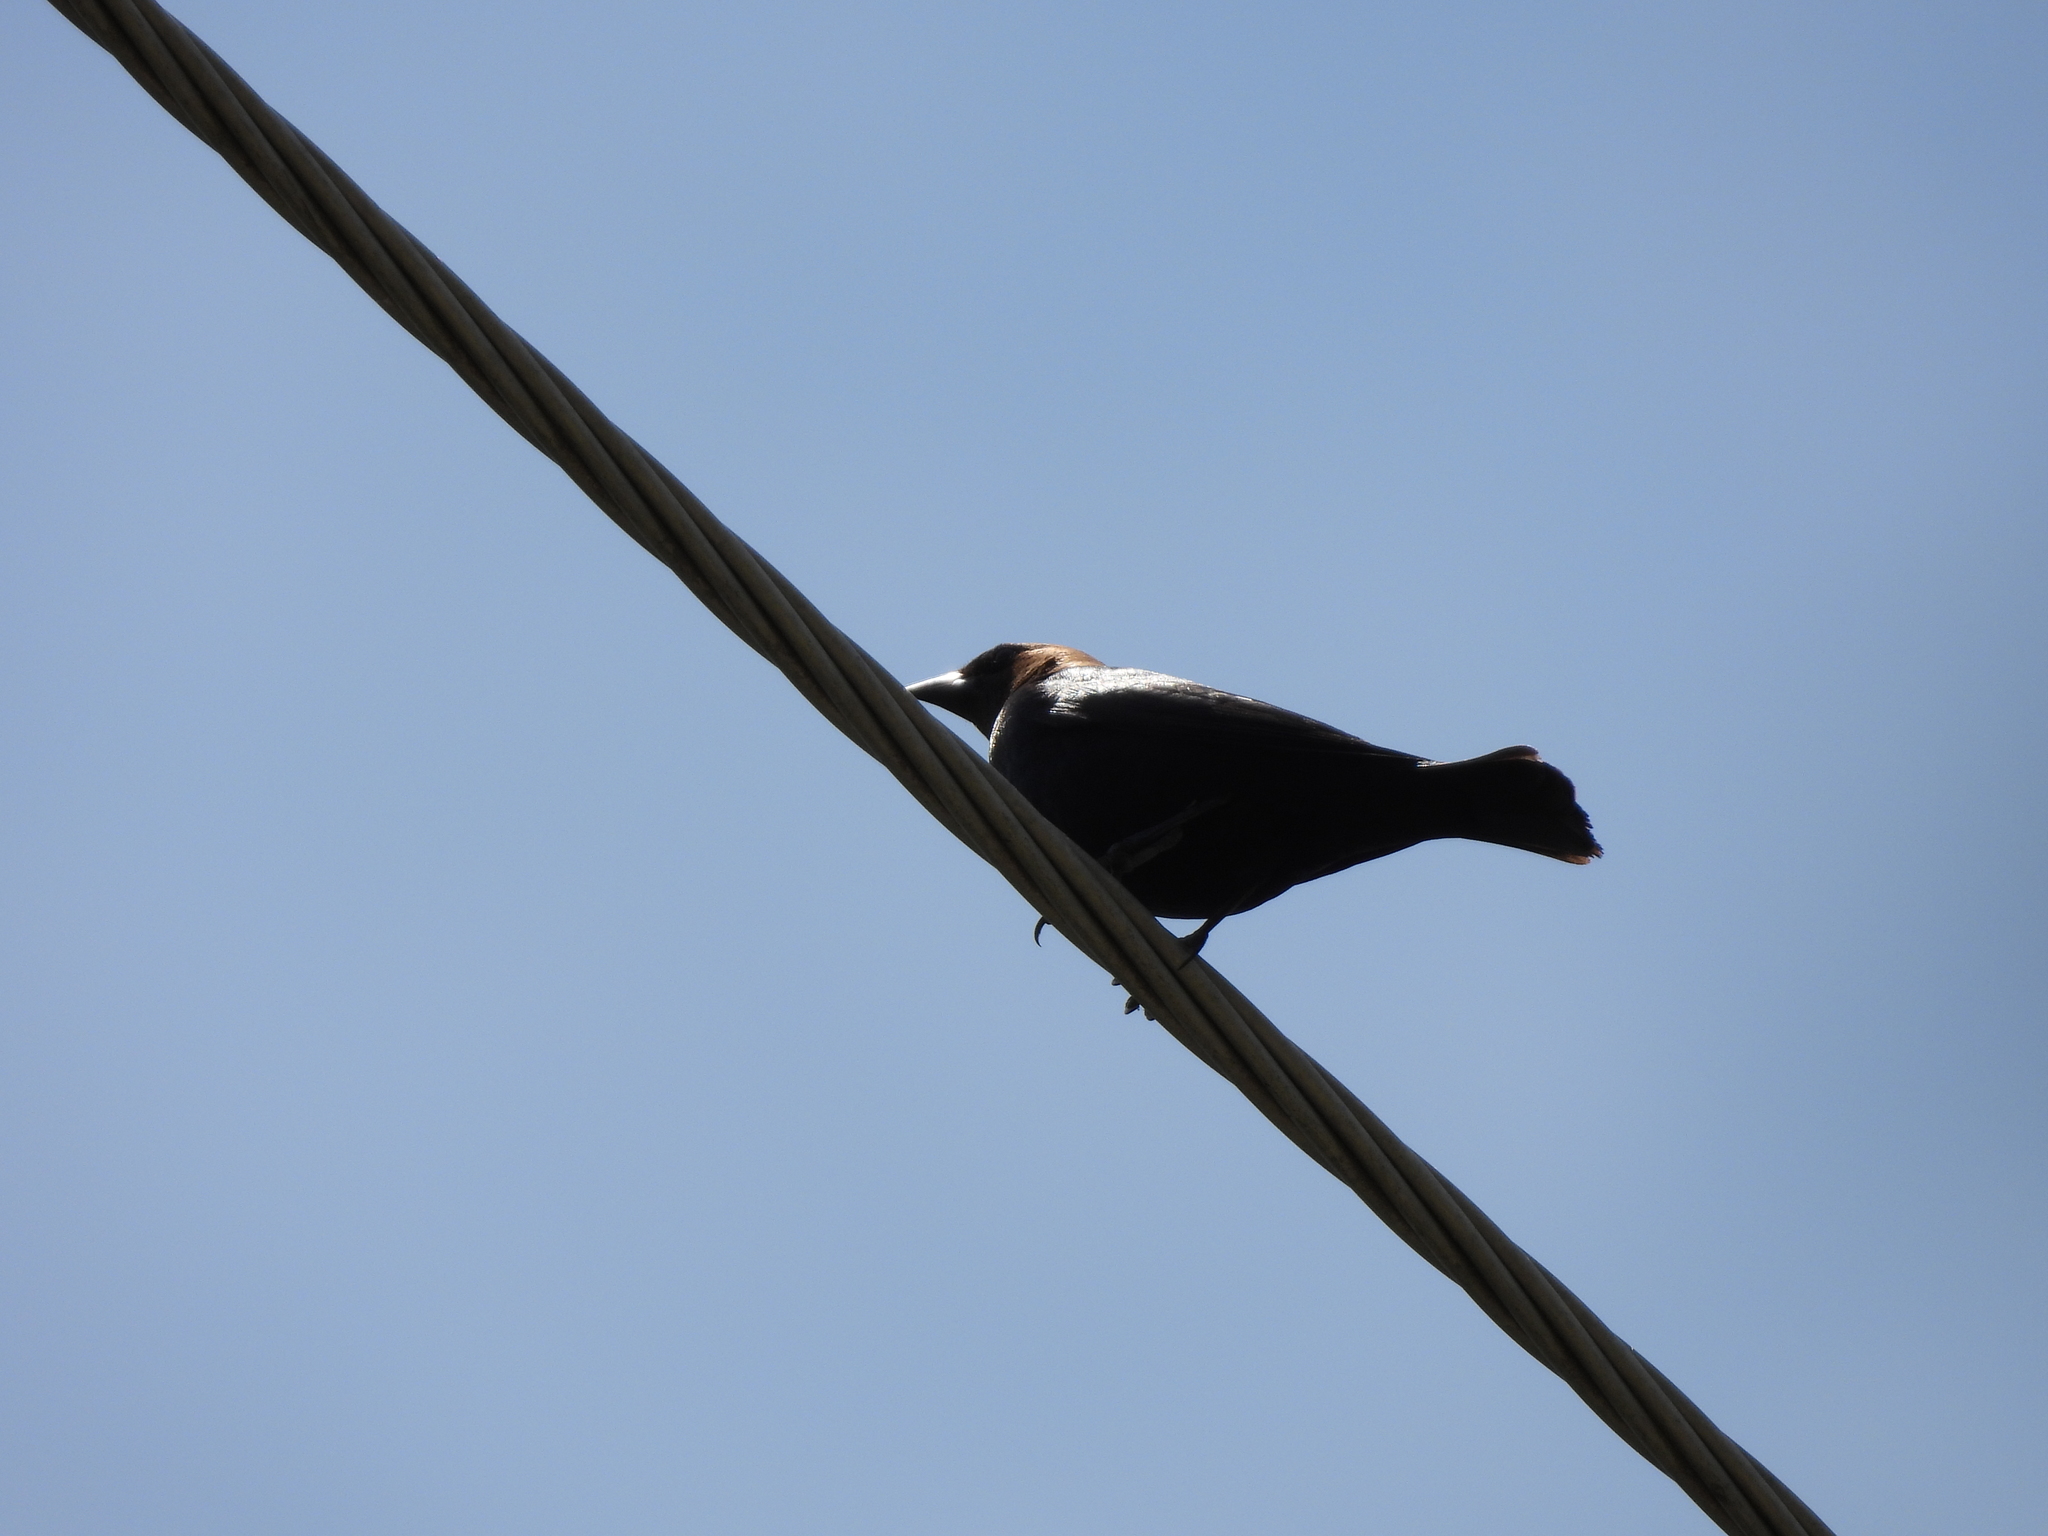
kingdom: Animalia
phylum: Chordata
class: Aves
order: Passeriformes
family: Icteridae
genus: Molothrus
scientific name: Molothrus ater
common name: Brown-headed cowbird
